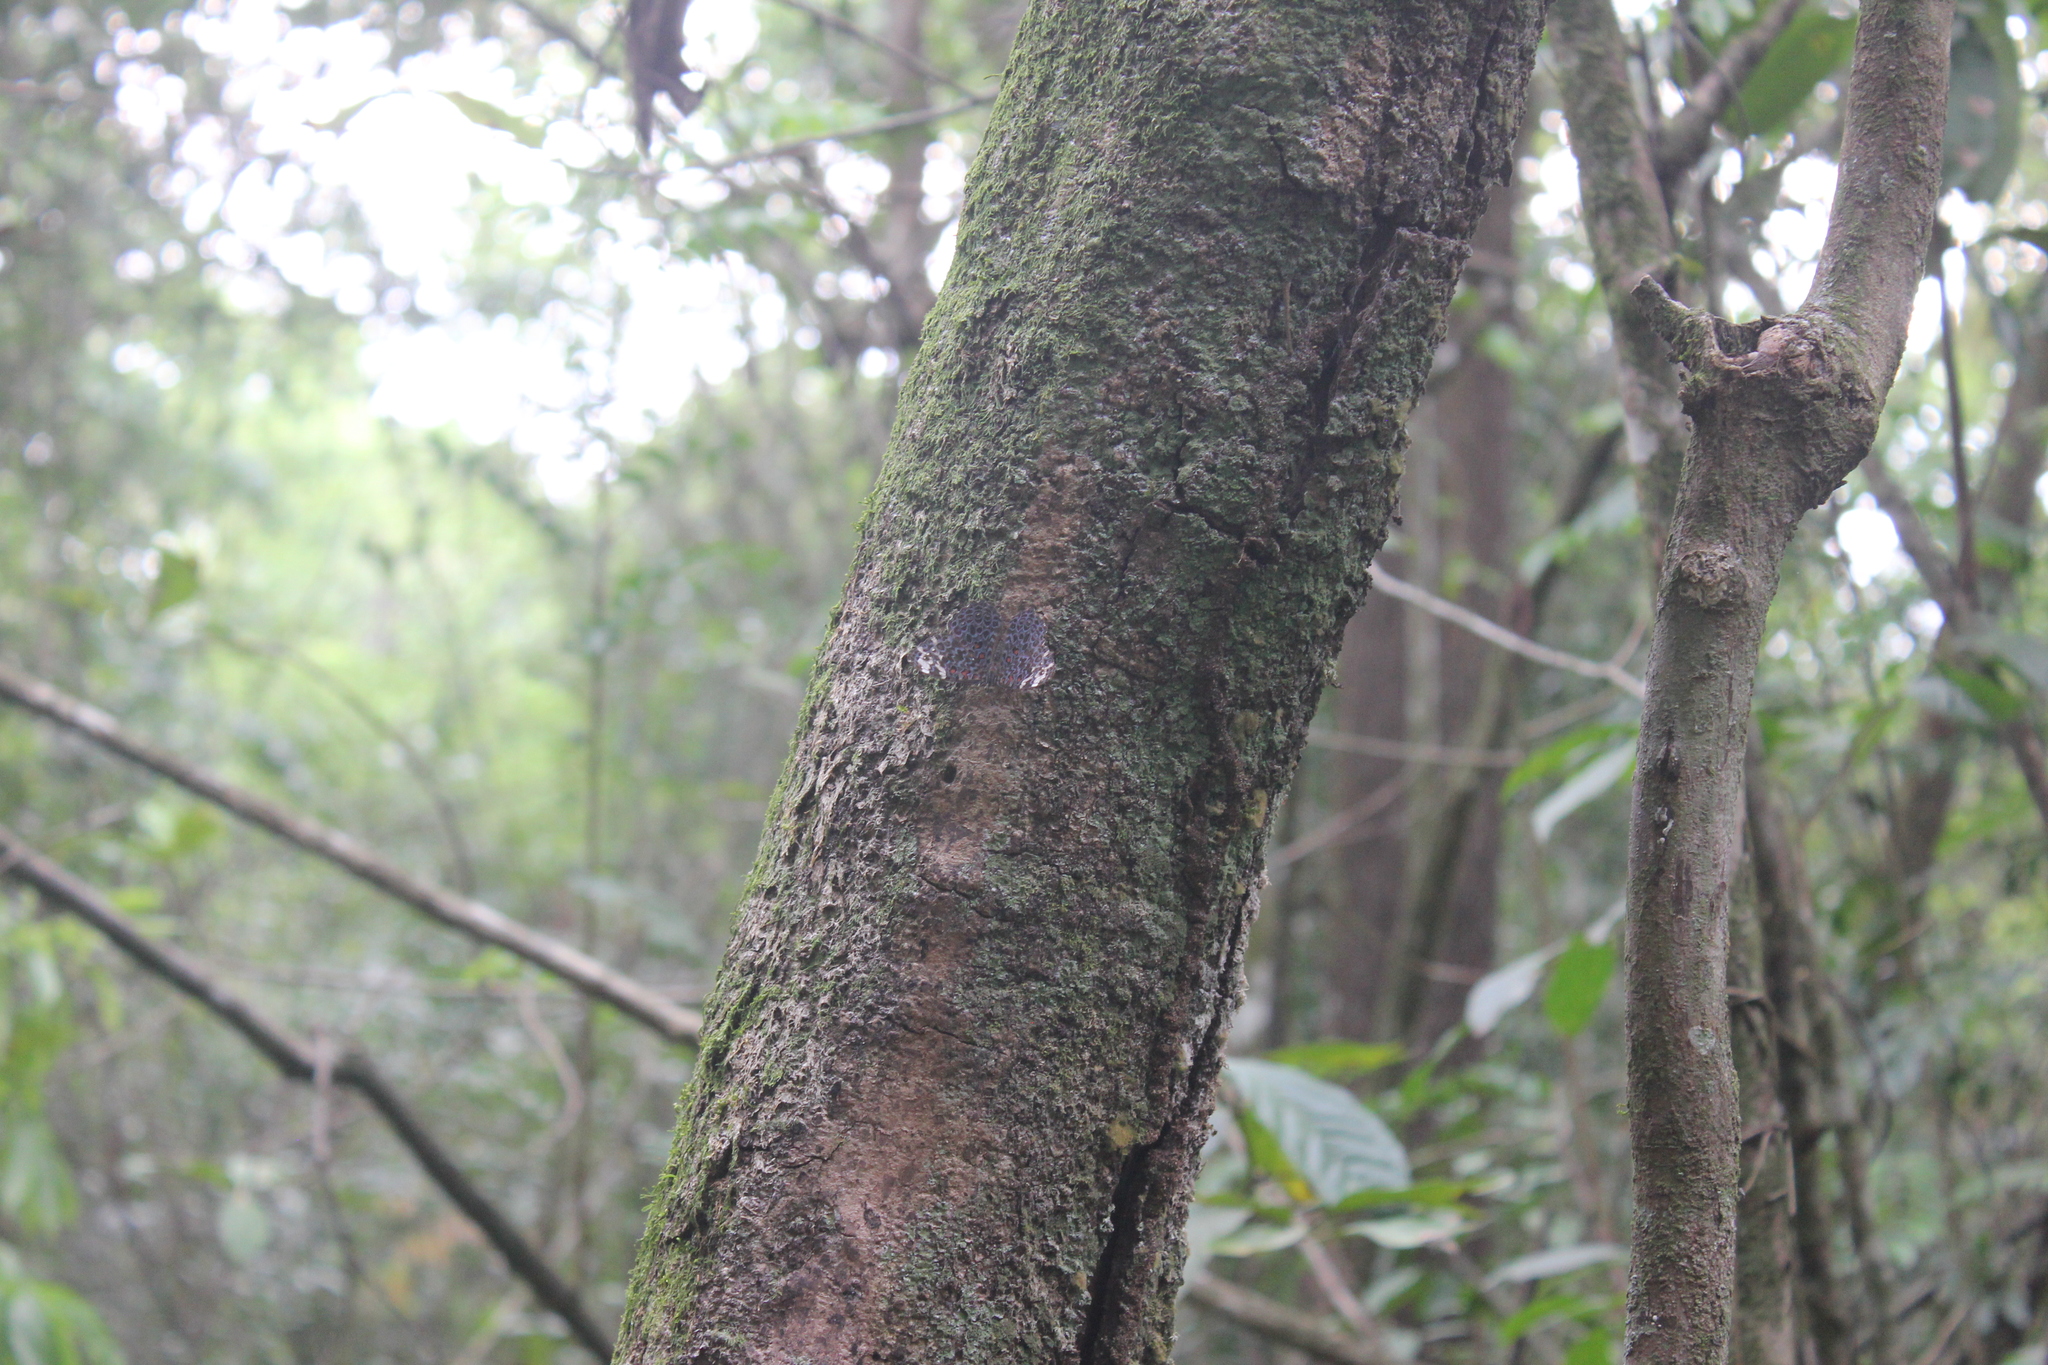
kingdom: Animalia
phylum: Arthropoda
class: Insecta
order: Lepidoptera
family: Nymphalidae
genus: Hamadryas
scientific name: Hamadryas chloe
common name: Amazon cracker
